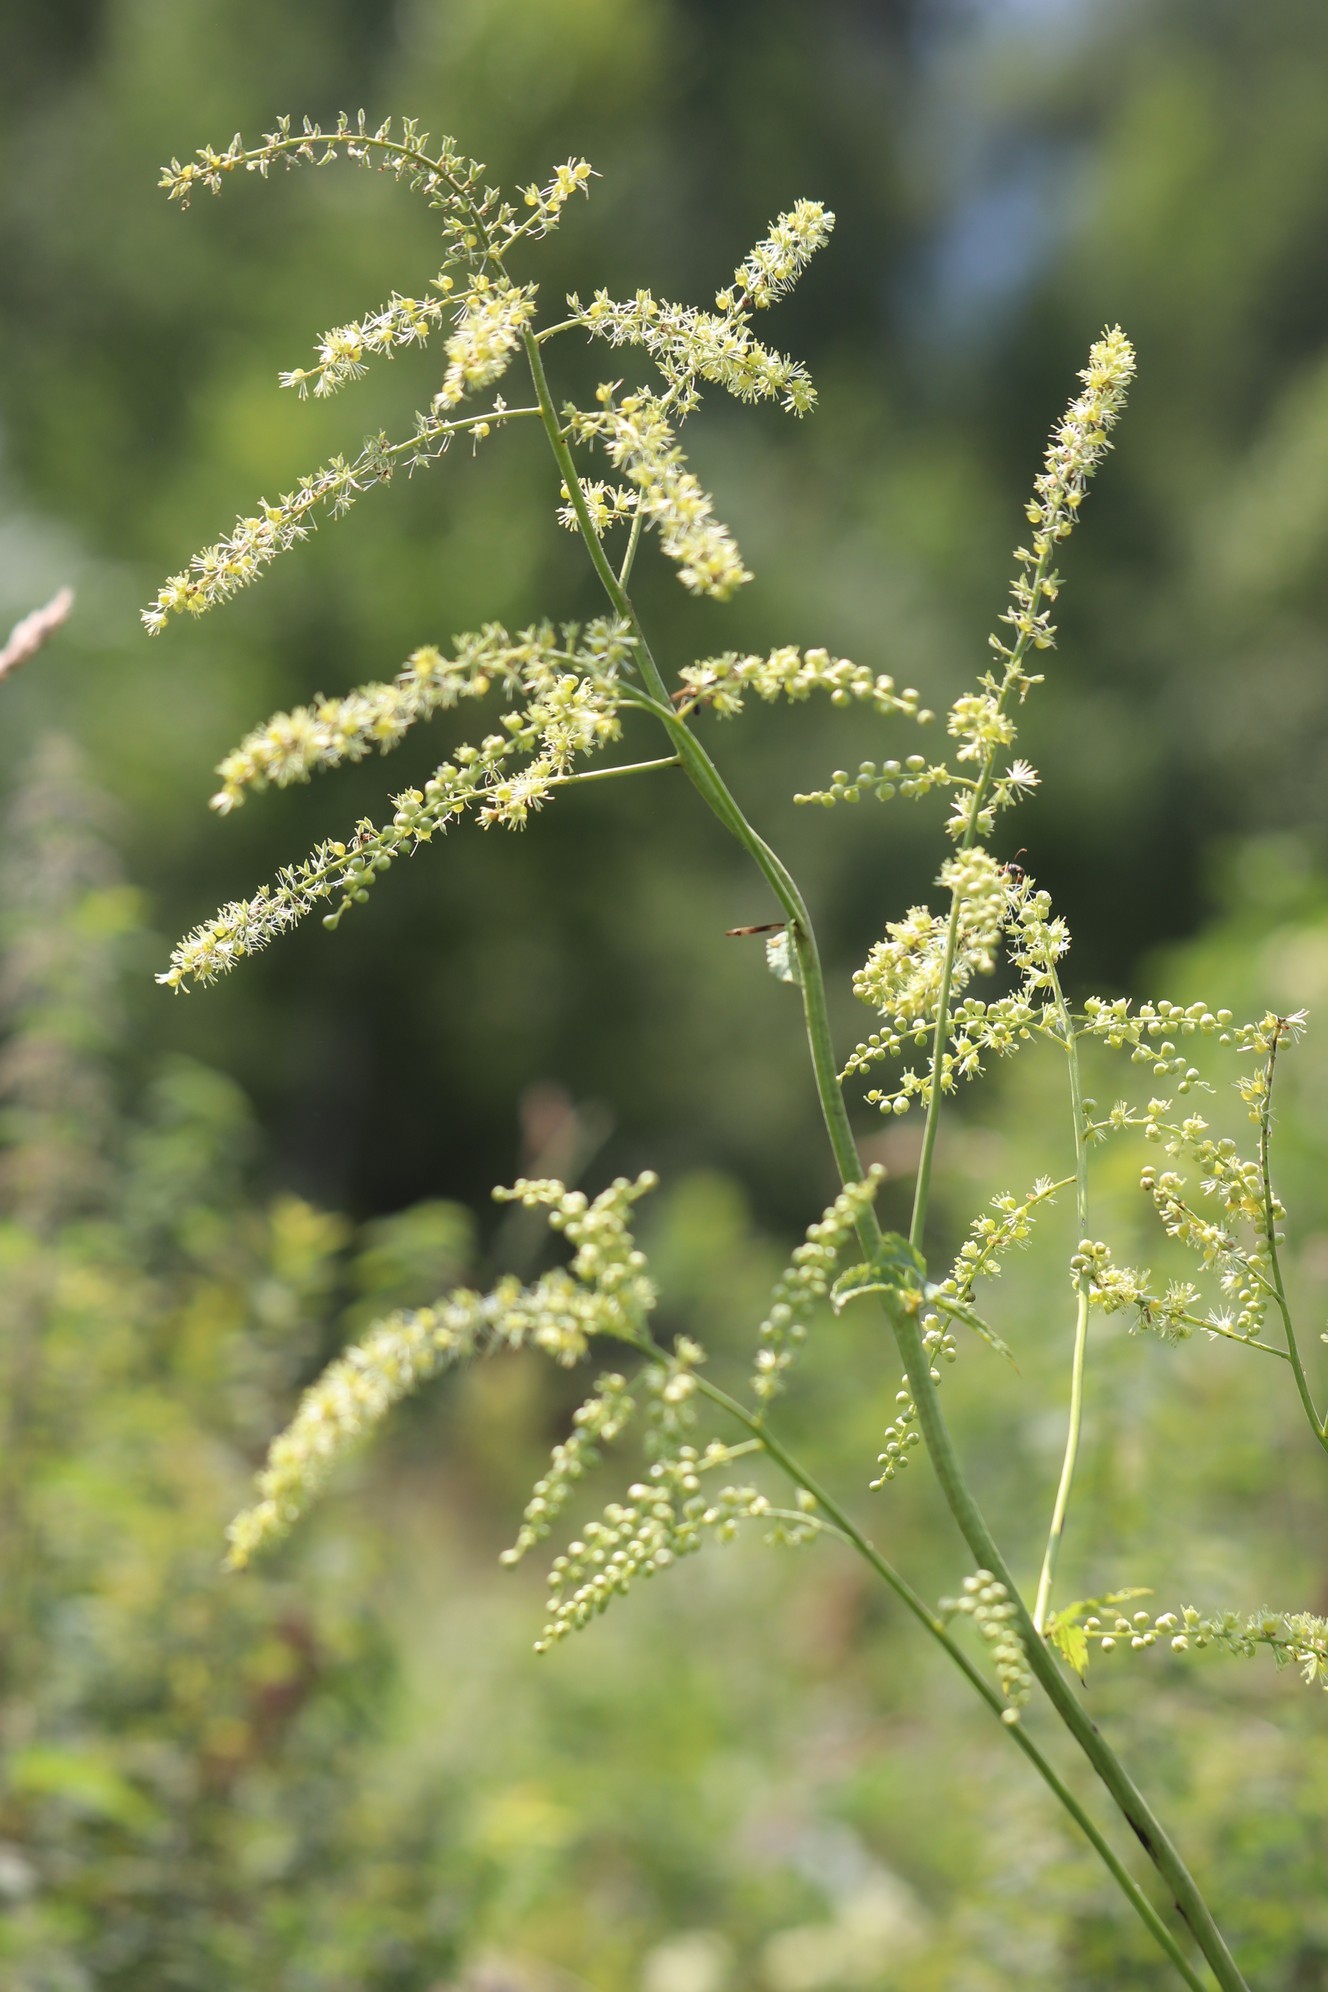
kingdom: Plantae
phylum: Tracheophyta
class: Magnoliopsida
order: Ranunculales
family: Ranunculaceae
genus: Actaea
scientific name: Actaea cimicifuga
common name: Chinese cimicifuga
